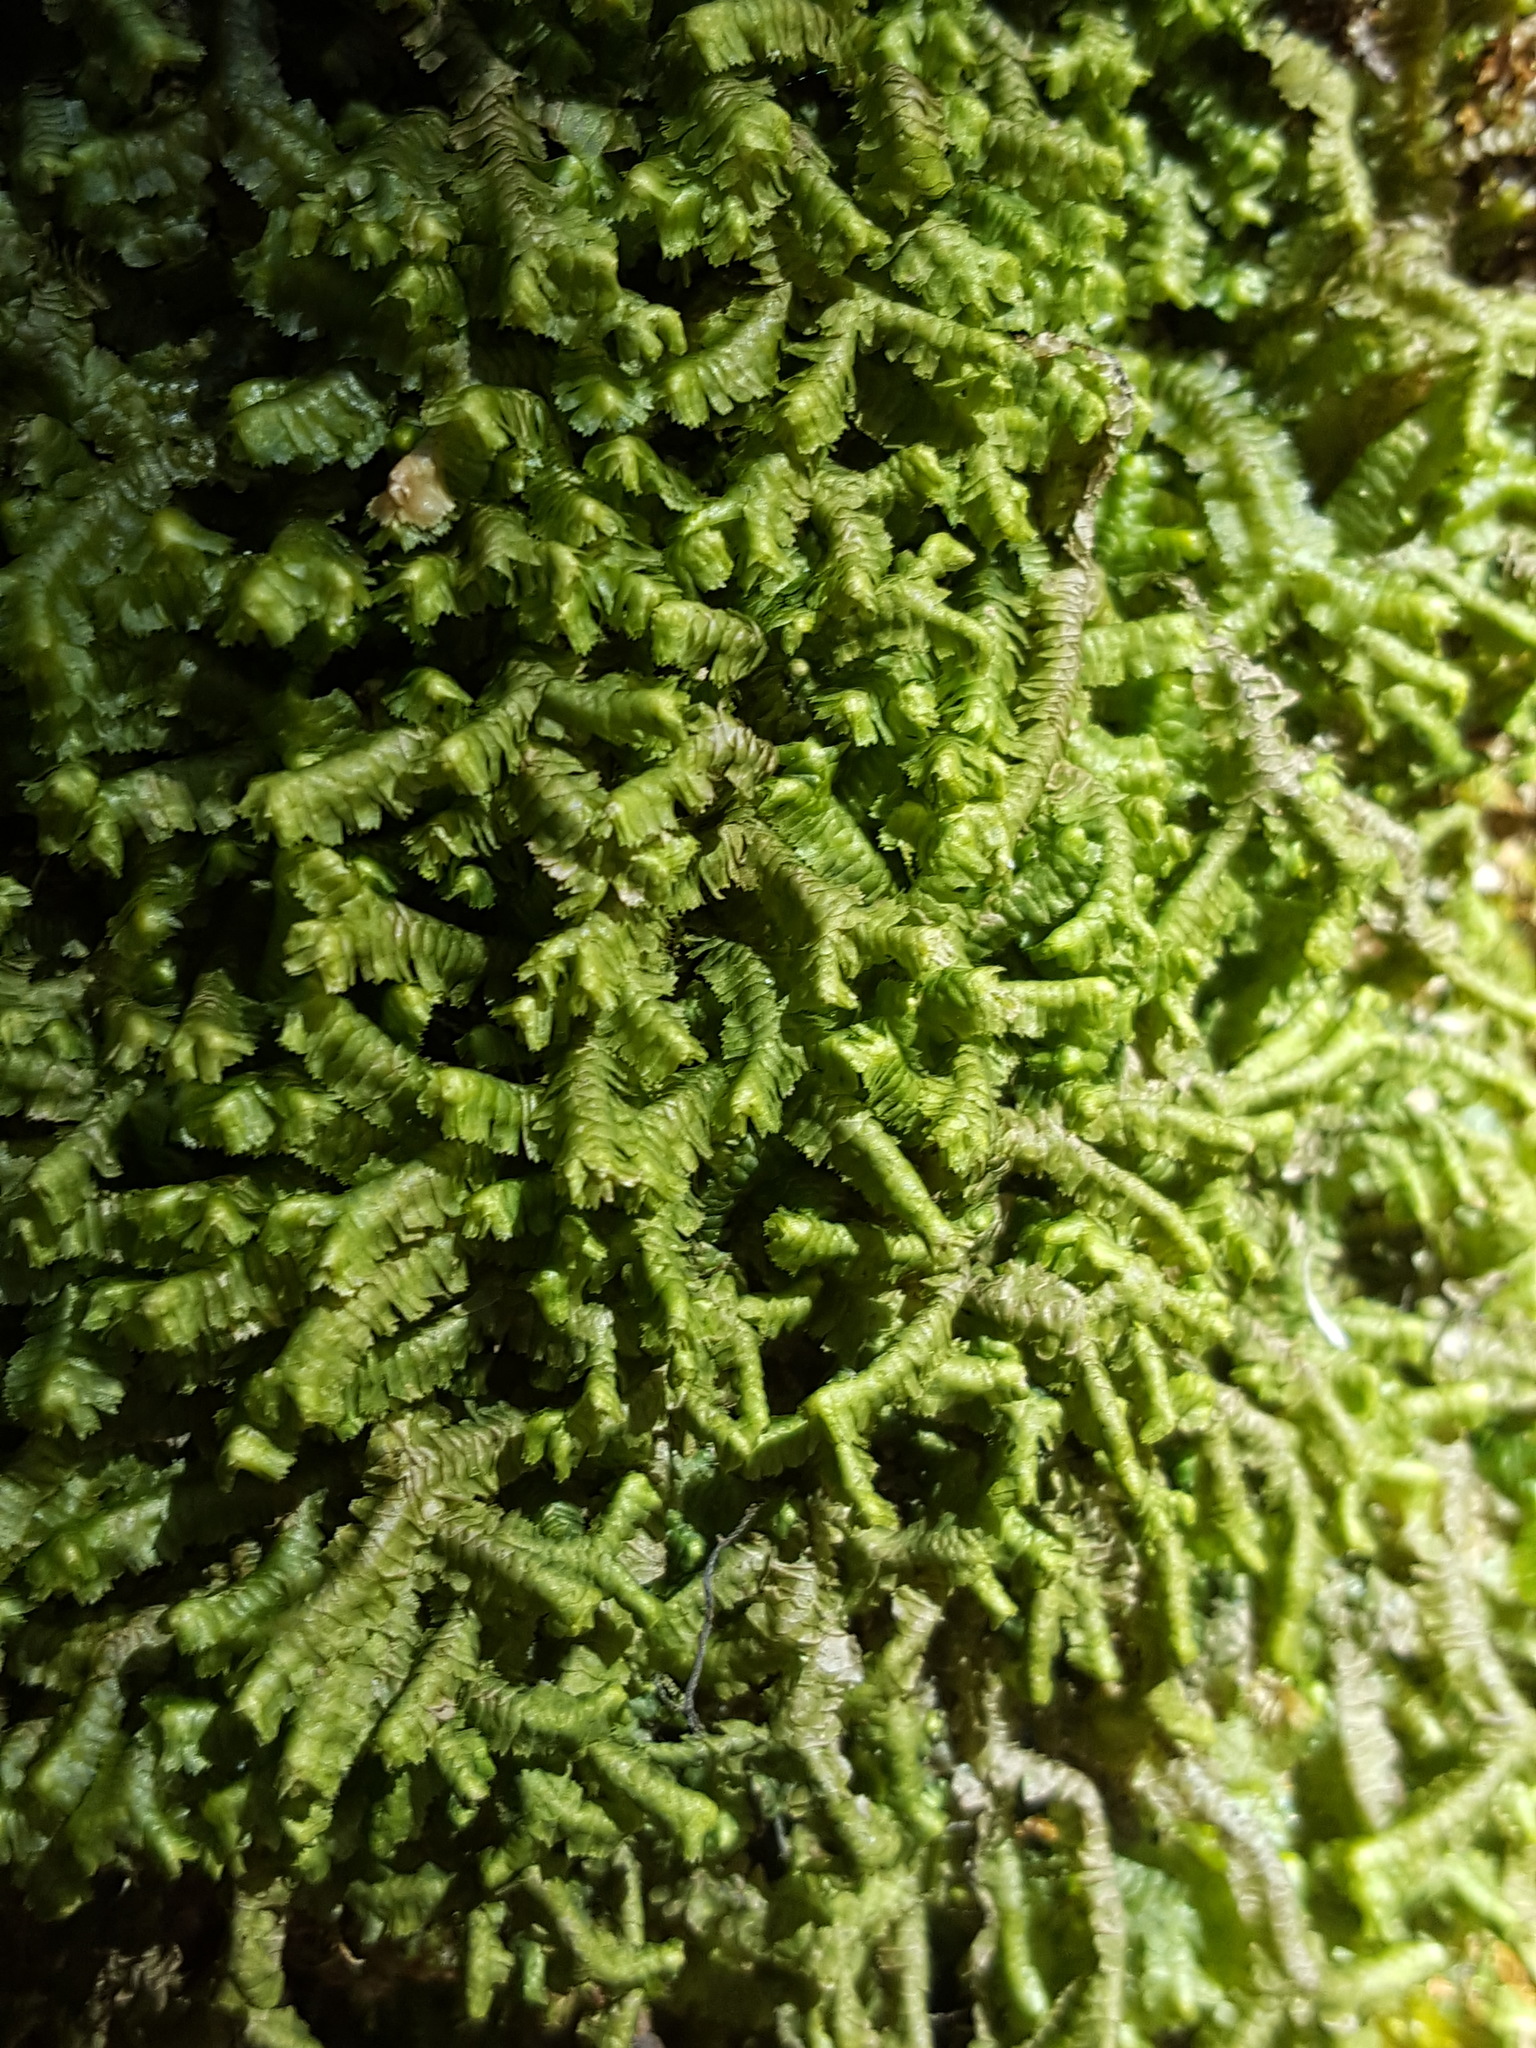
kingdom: Plantae
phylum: Marchantiophyta
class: Jungermanniopsida
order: Jungermanniales
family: Lepidoziaceae
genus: Bazzania
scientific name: Bazzania trilobata
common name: Three-lobed whipwort
